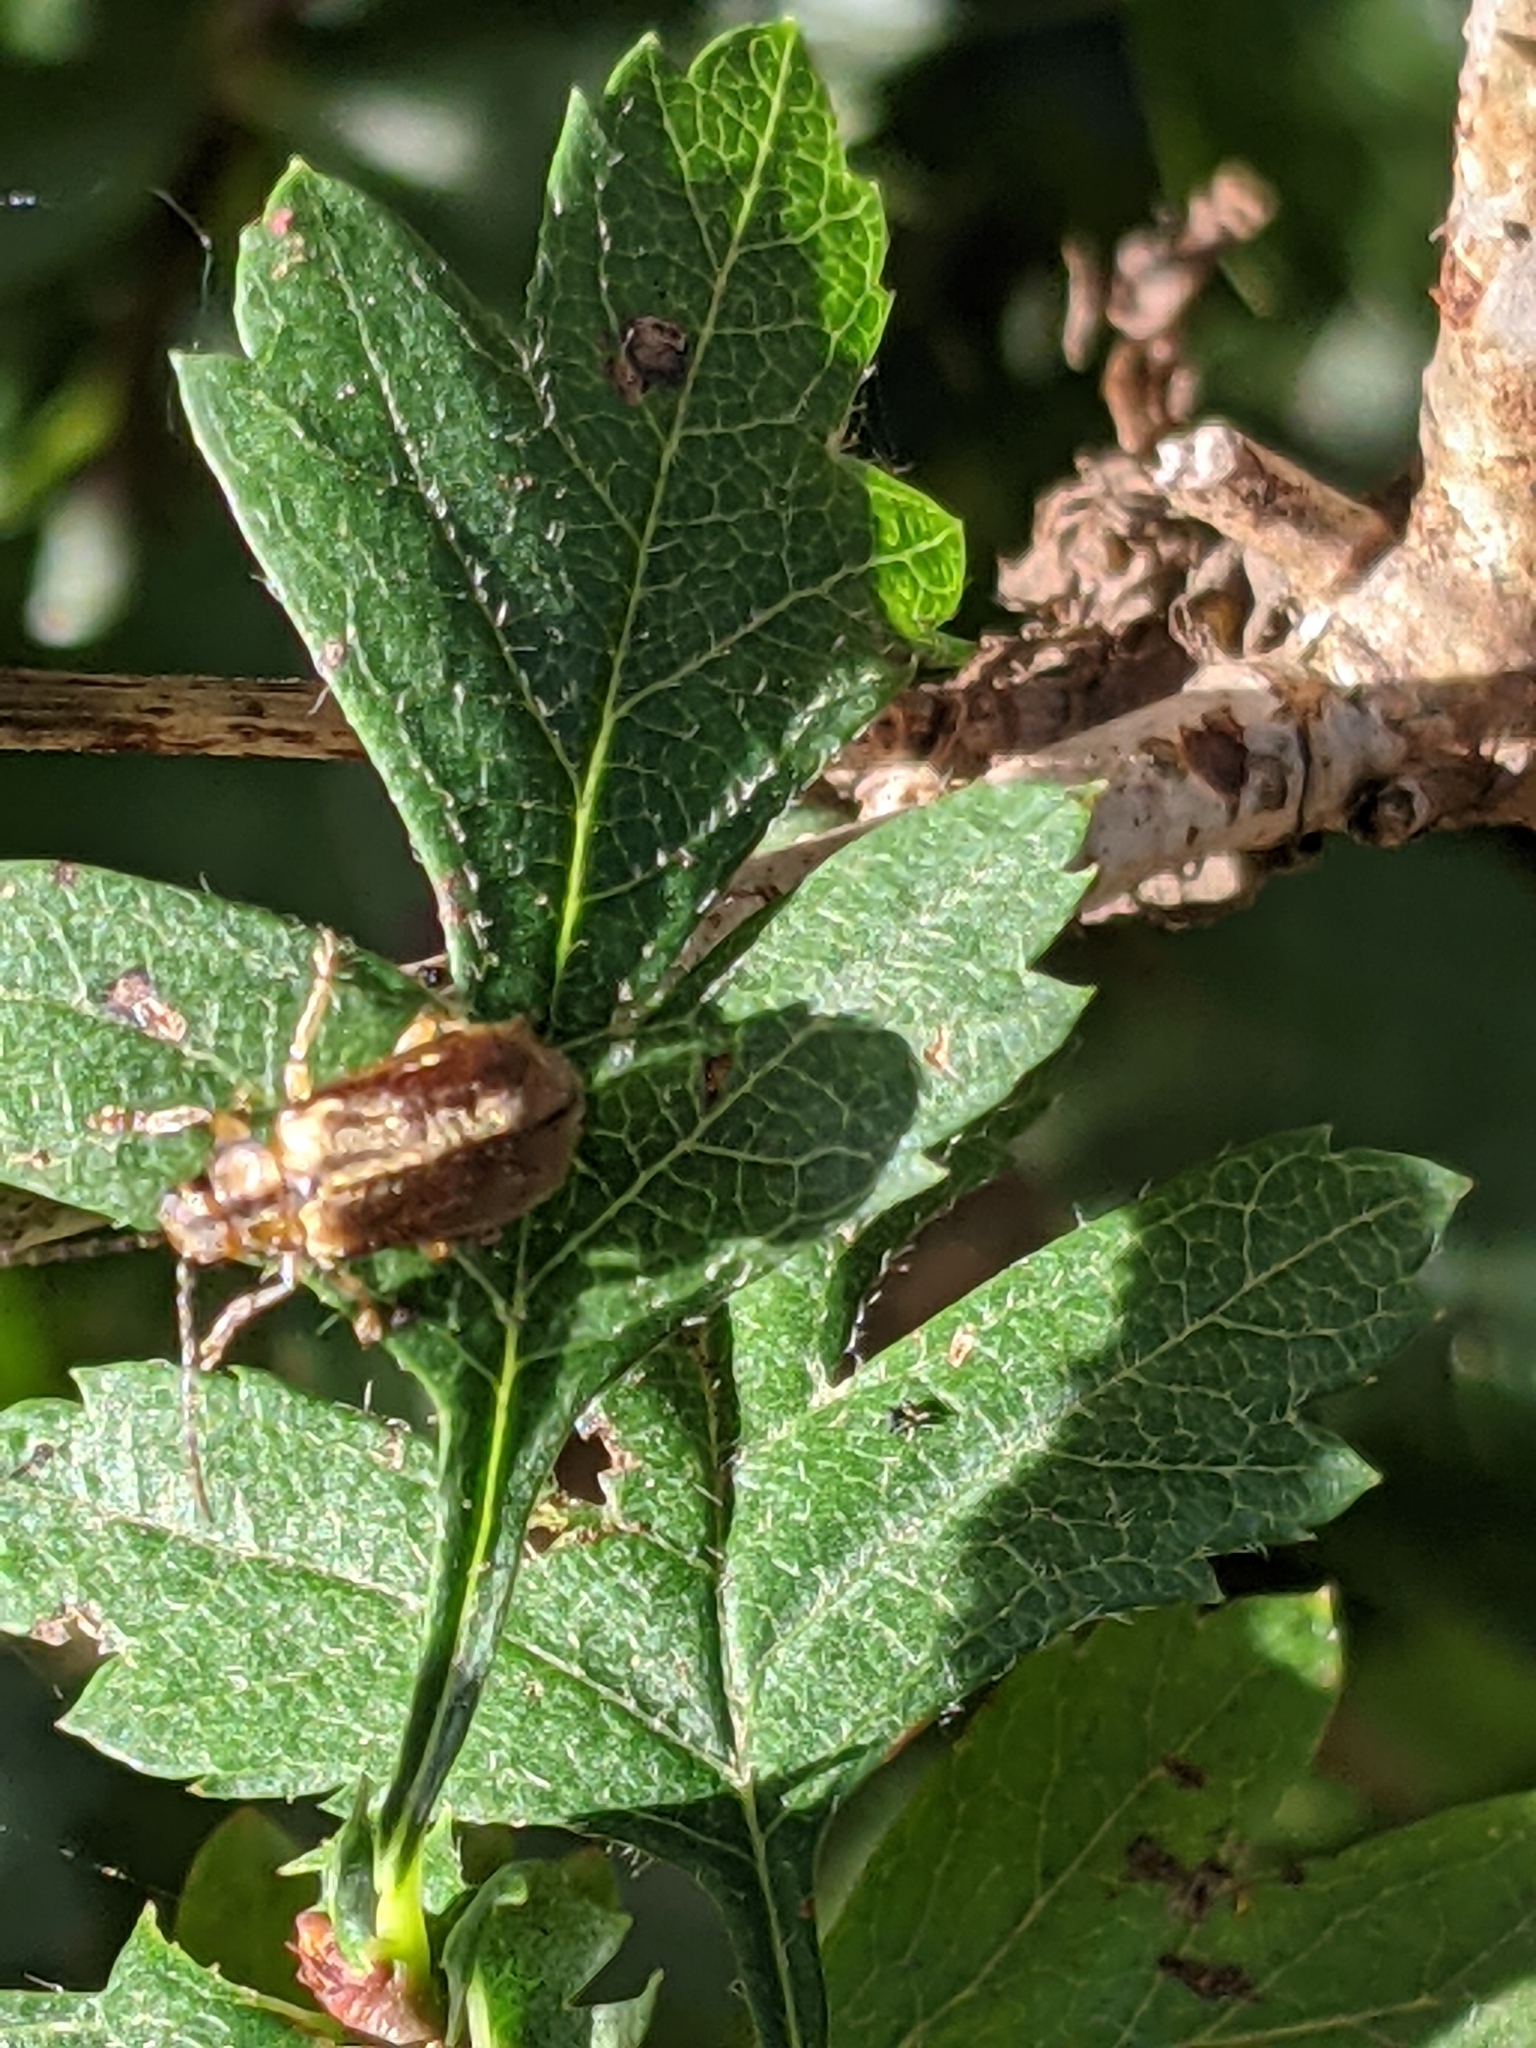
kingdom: Animalia
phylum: Arthropoda
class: Insecta
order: Coleoptera
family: Chrysomelidae
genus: Pyrrhalta
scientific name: Pyrrhalta viburni
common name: Guelder-rose leaf beetle
